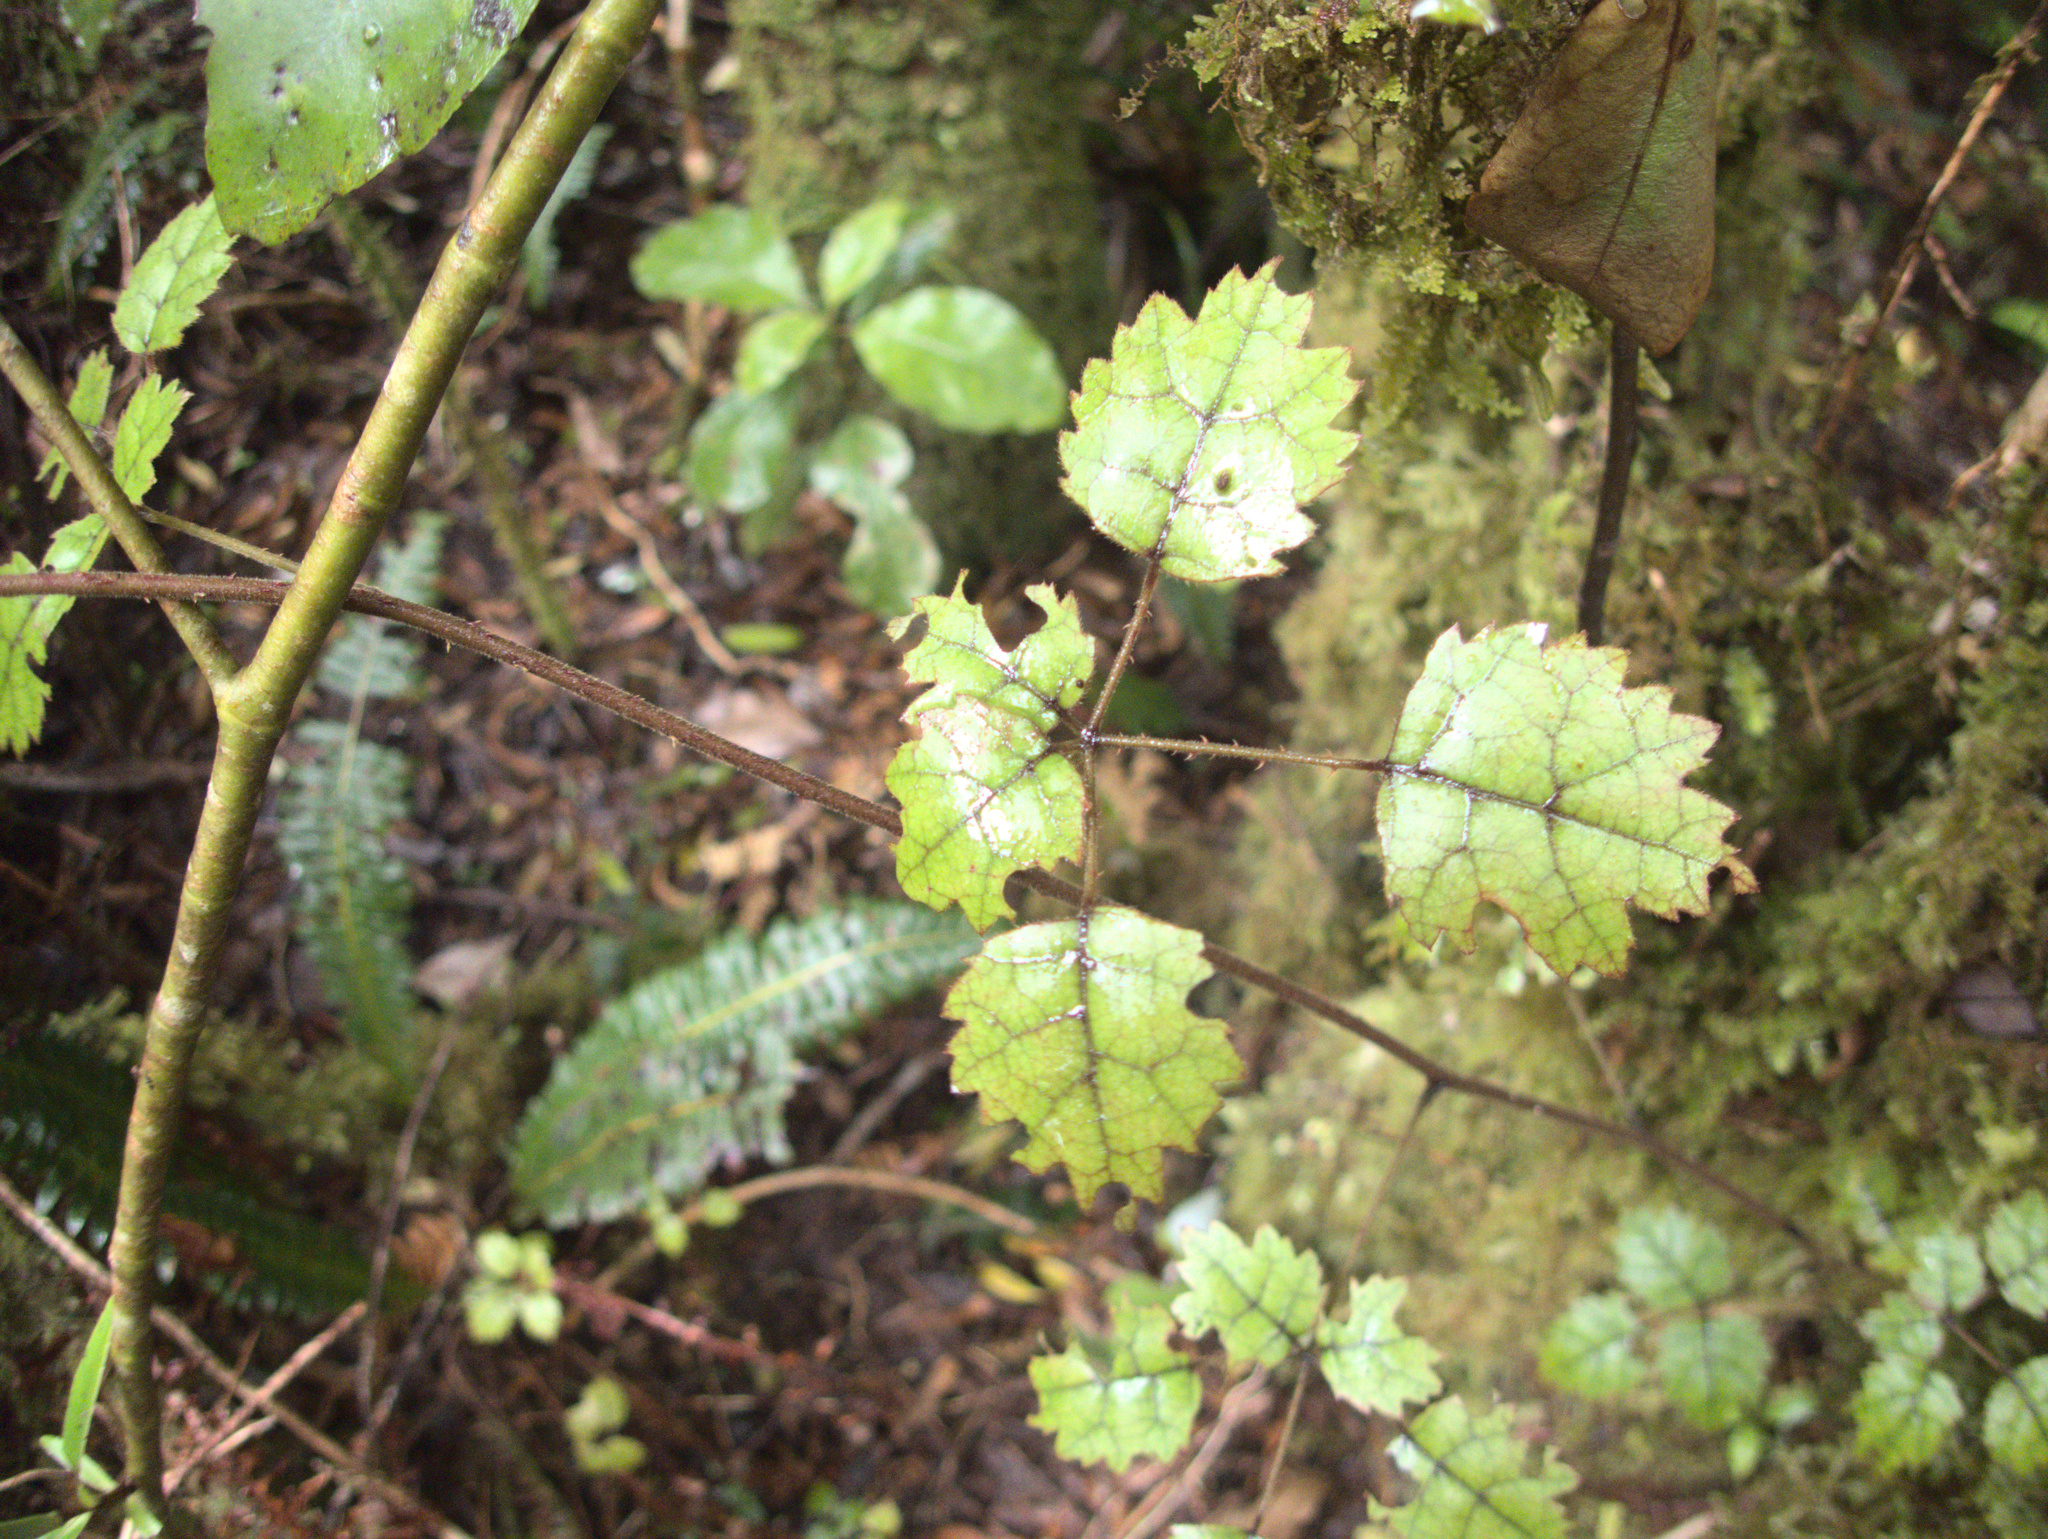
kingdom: Plantae
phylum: Tracheophyta
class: Magnoliopsida
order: Rosales
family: Rosaceae
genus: Rubus
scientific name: Rubus australis
